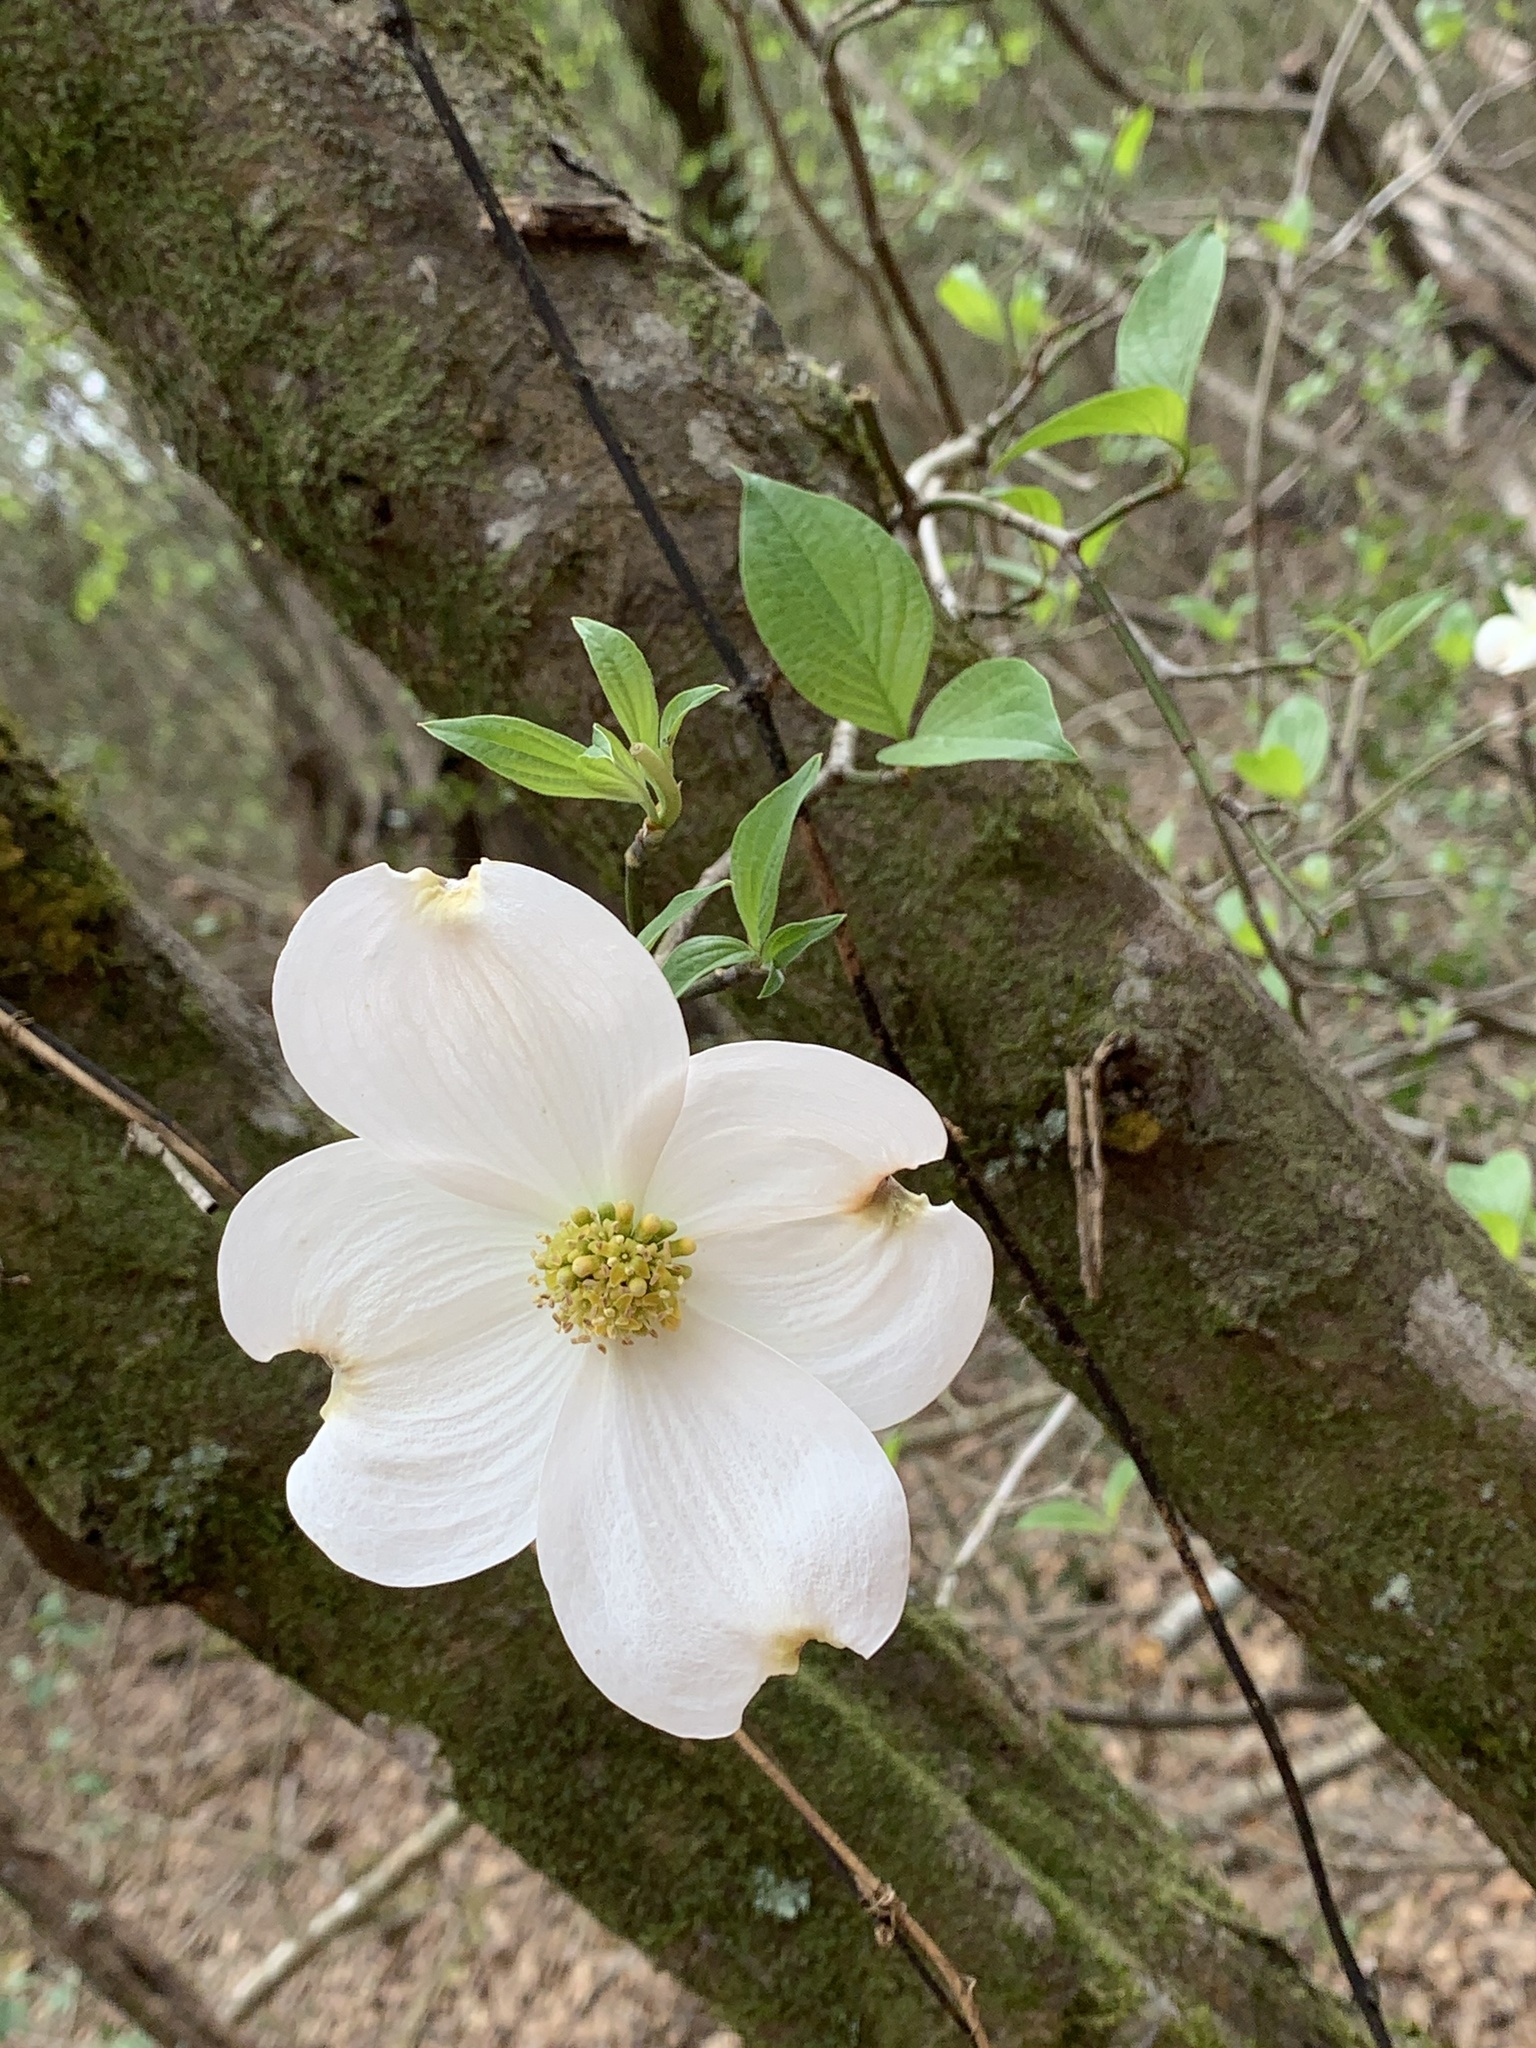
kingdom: Plantae
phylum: Tracheophyta
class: Magnoliopsida
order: Cornales
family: Cornaceae
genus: Cornus
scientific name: Cornus florida
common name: Flowering dogwood
